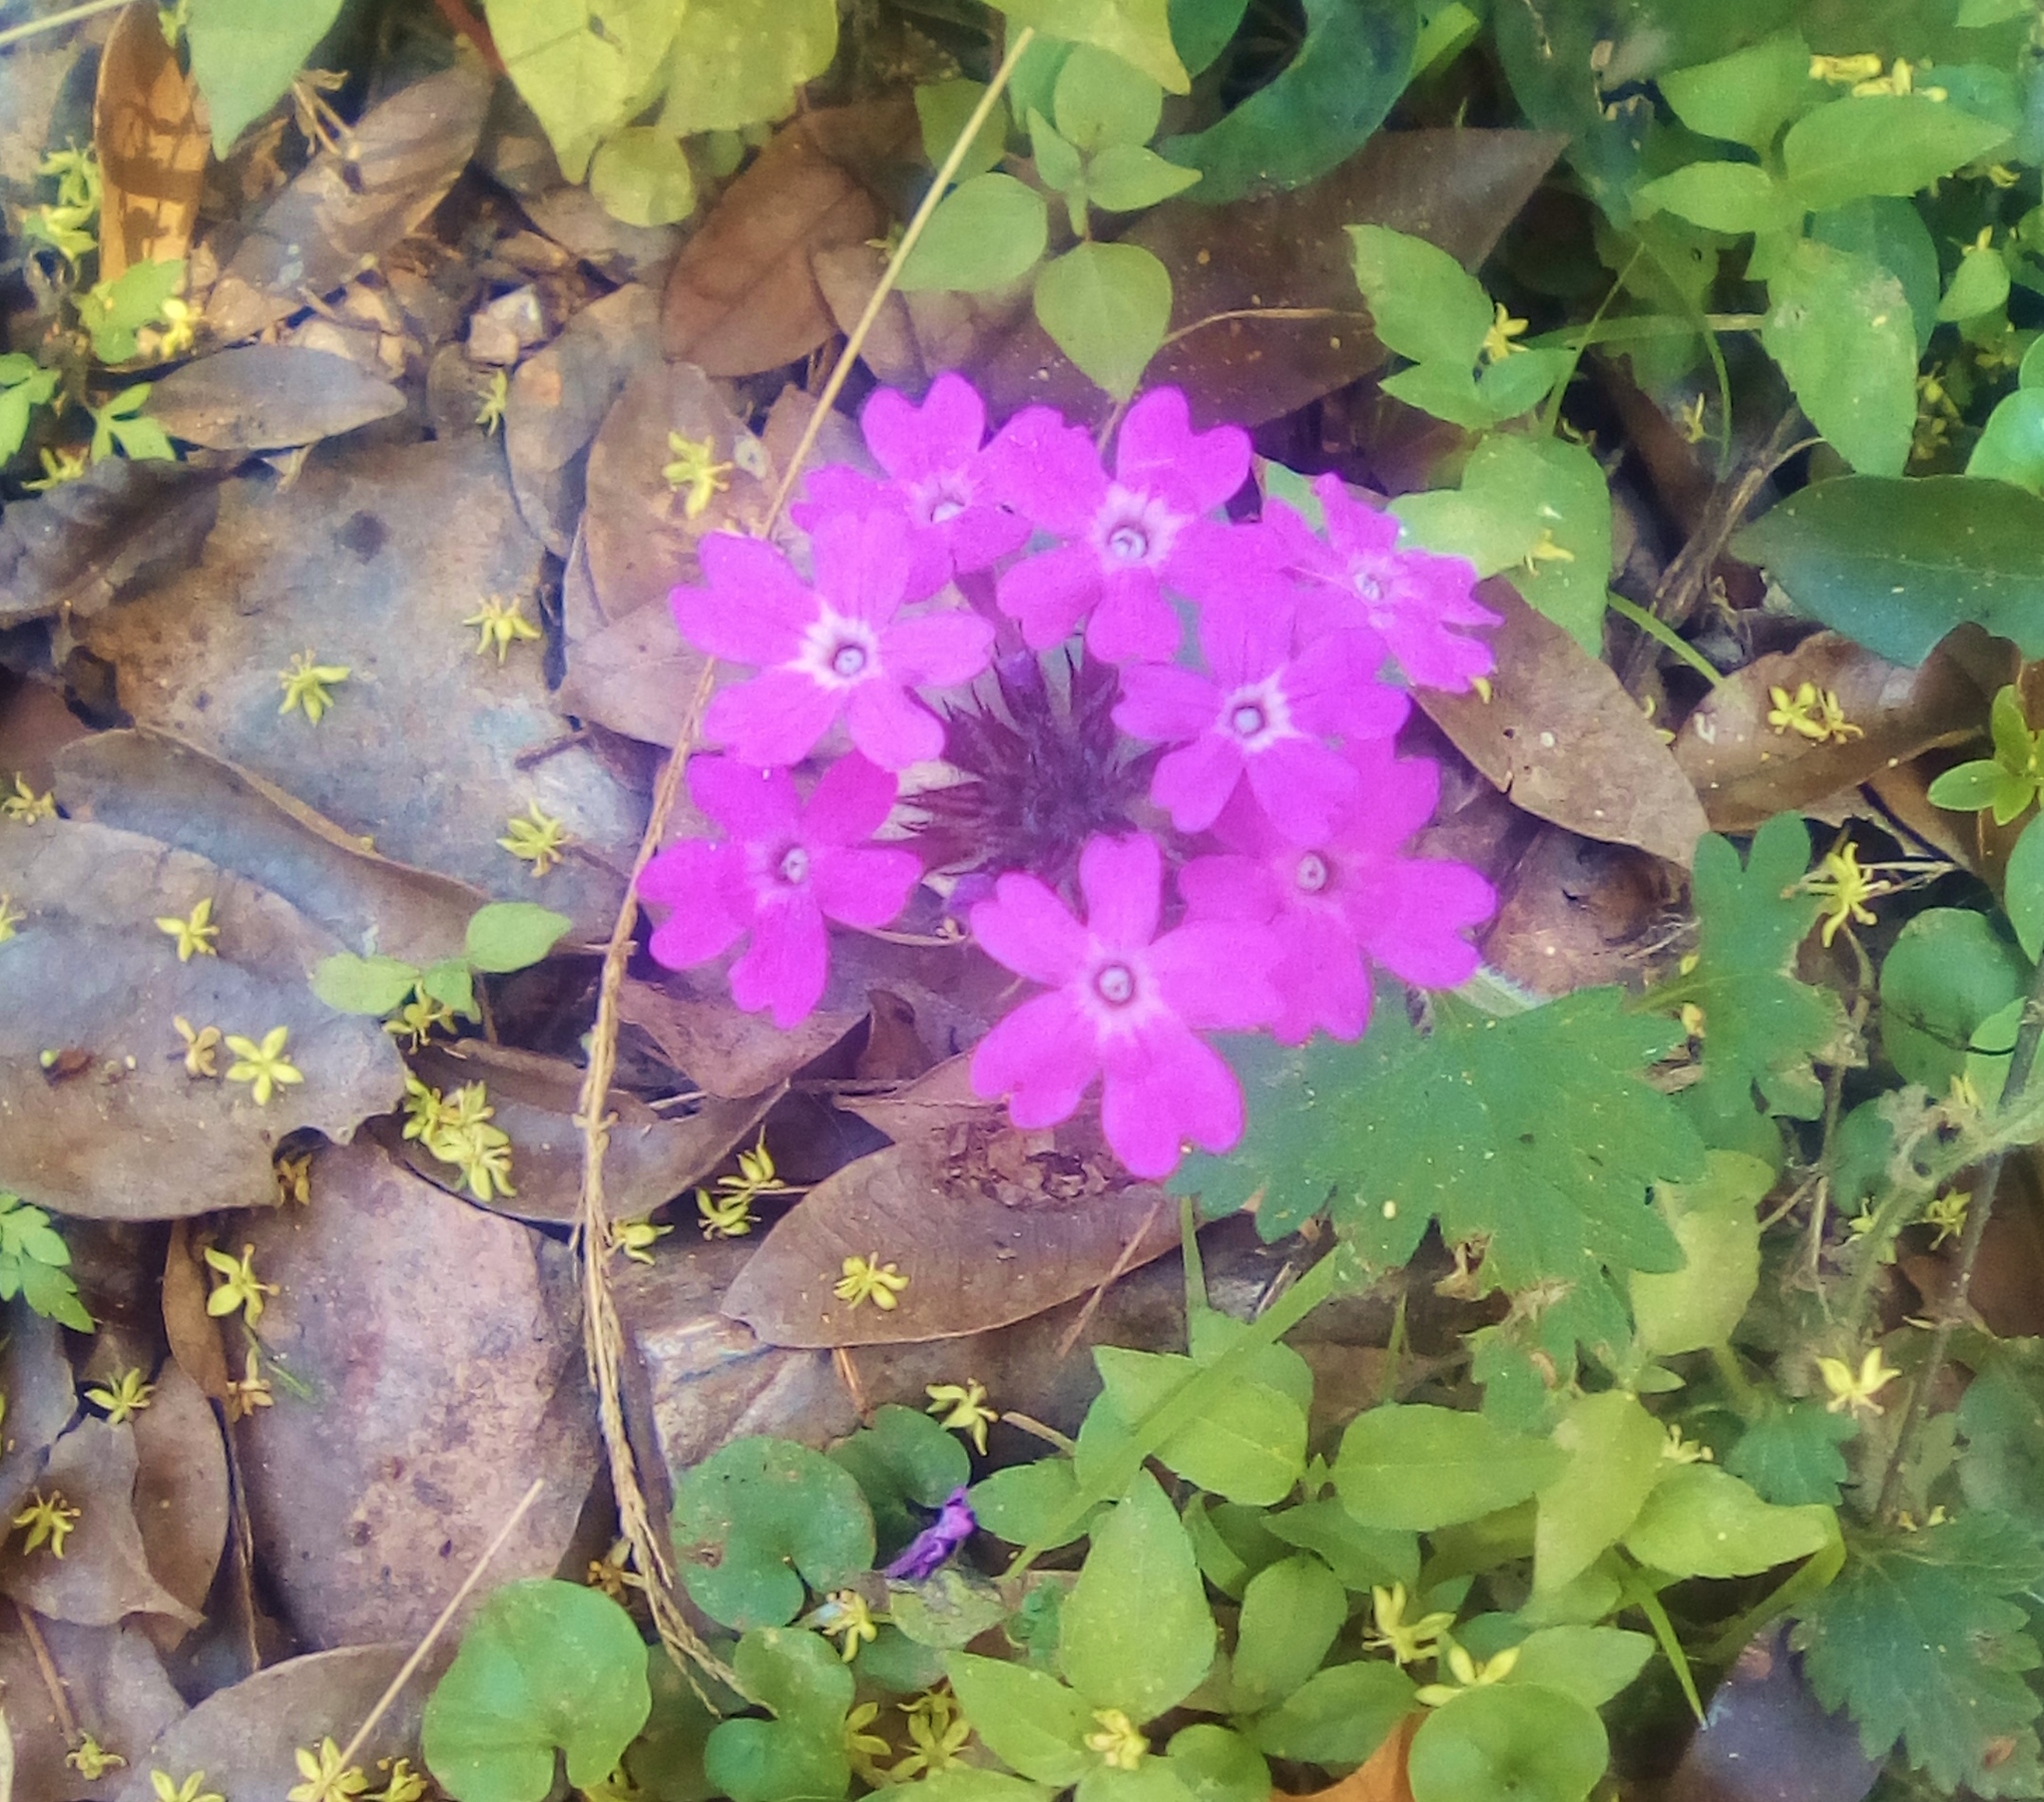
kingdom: Plantae
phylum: Tracheophyta
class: Magnoliopsida
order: Lamiales
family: Verbenaceae
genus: Verbena
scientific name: Verbena canadensis
